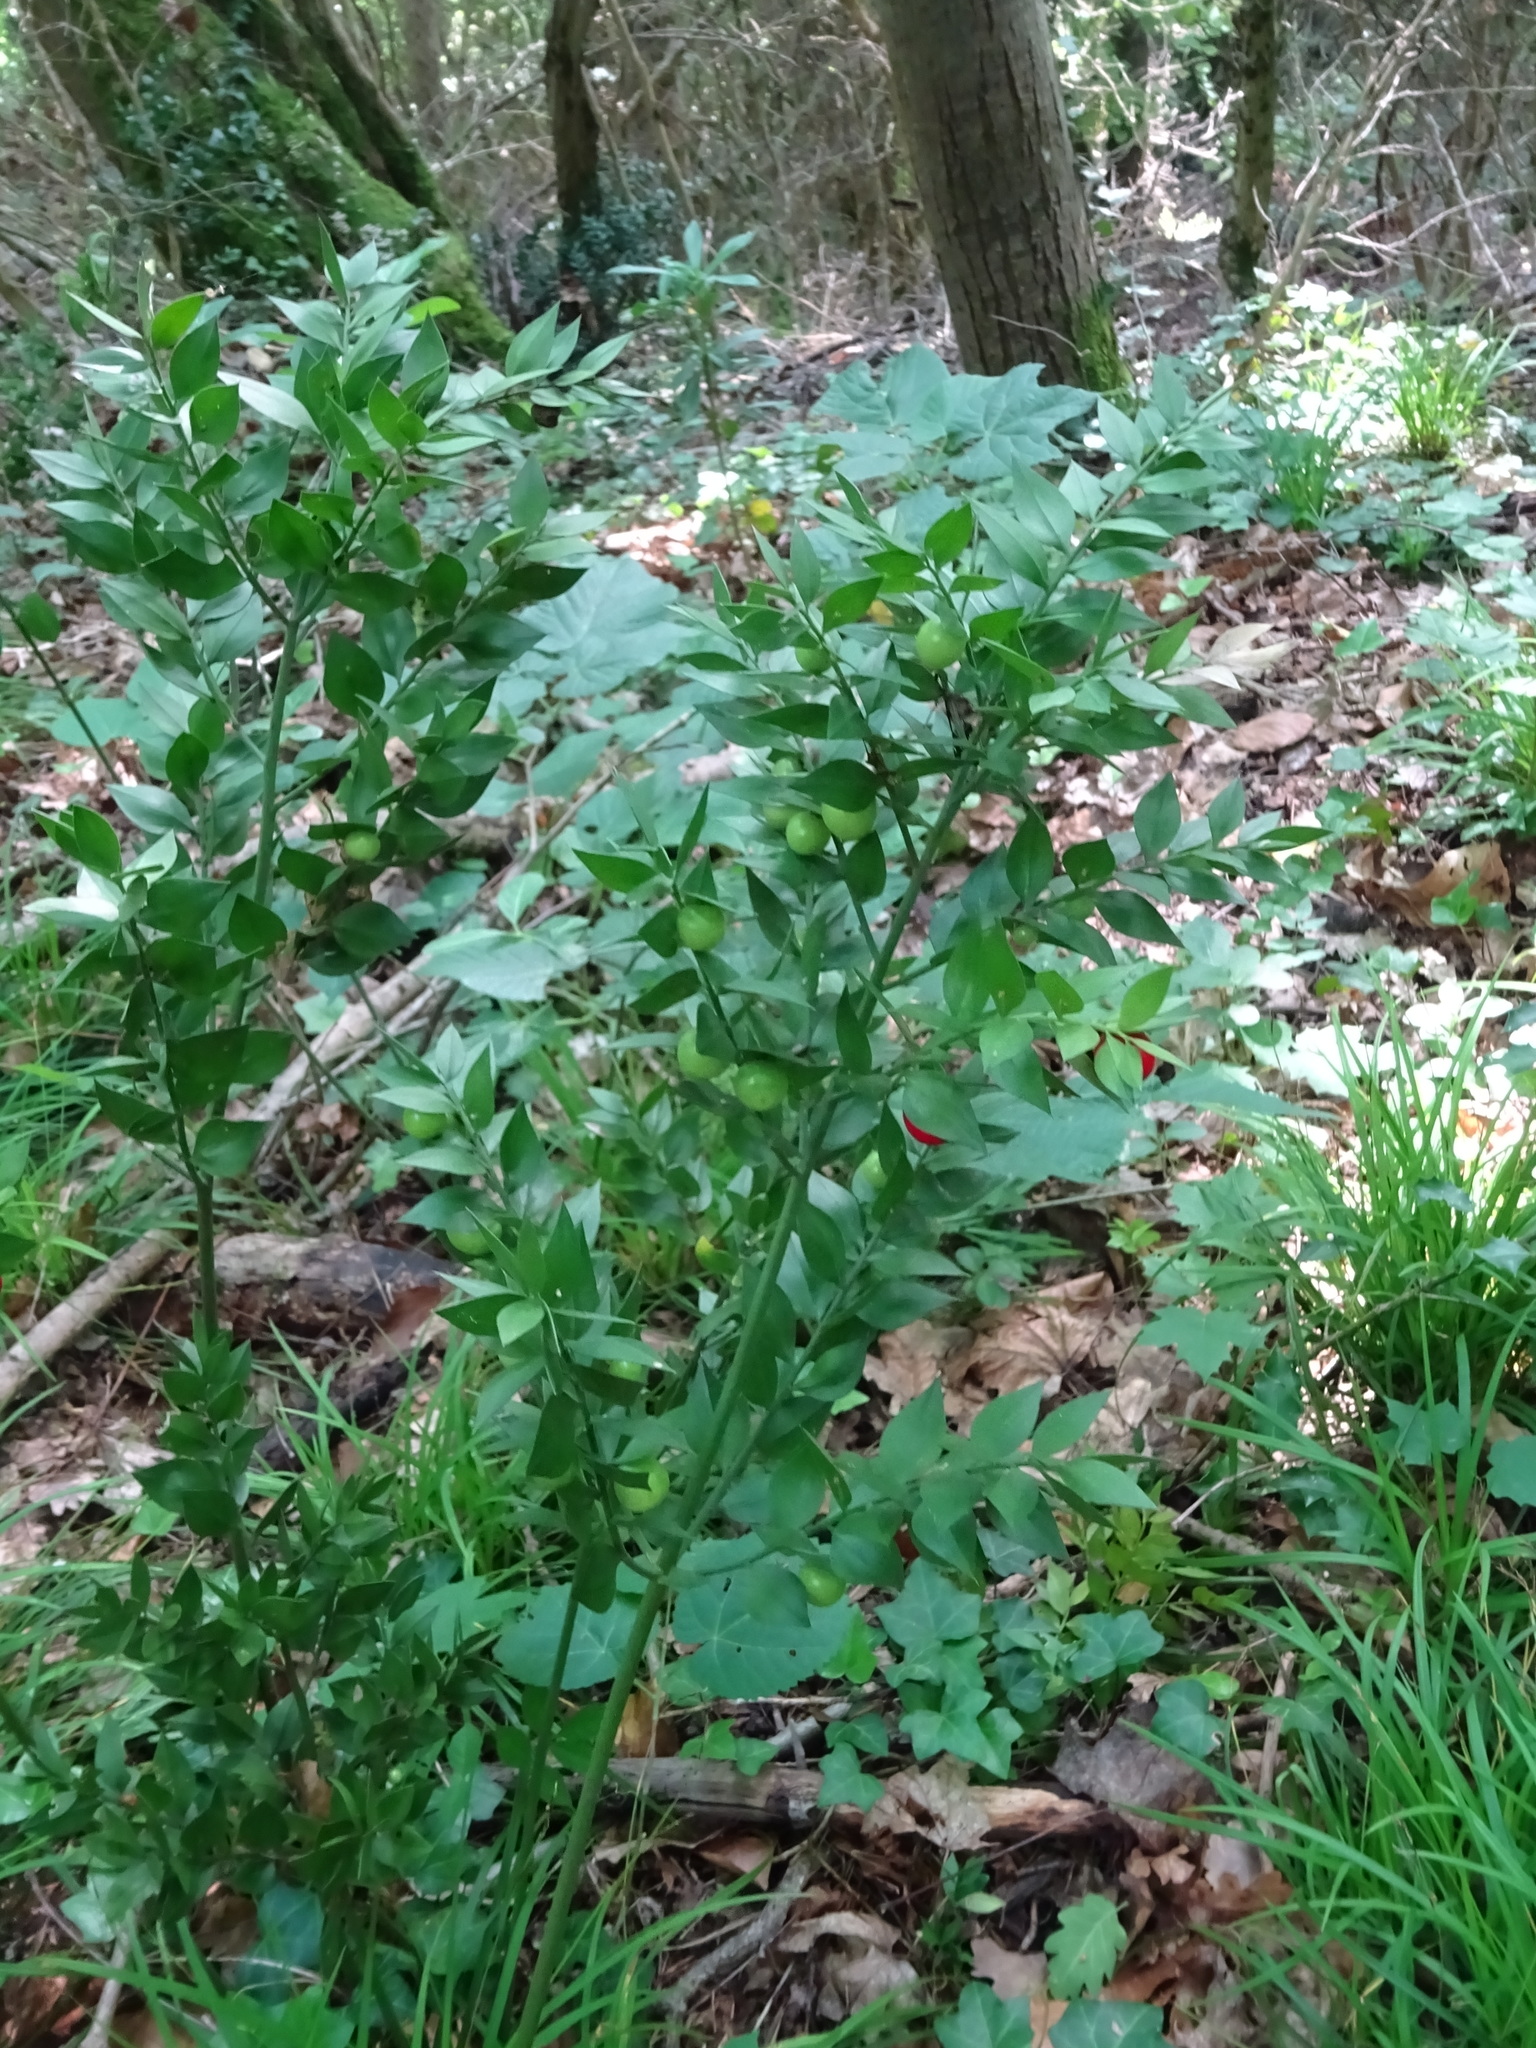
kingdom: Plantae
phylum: Tracheophyta
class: Liliopsida
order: Asparagales
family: Asparagaceae
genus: Ruscus
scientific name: Ruscus aculeatus
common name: Butcher's-broom
